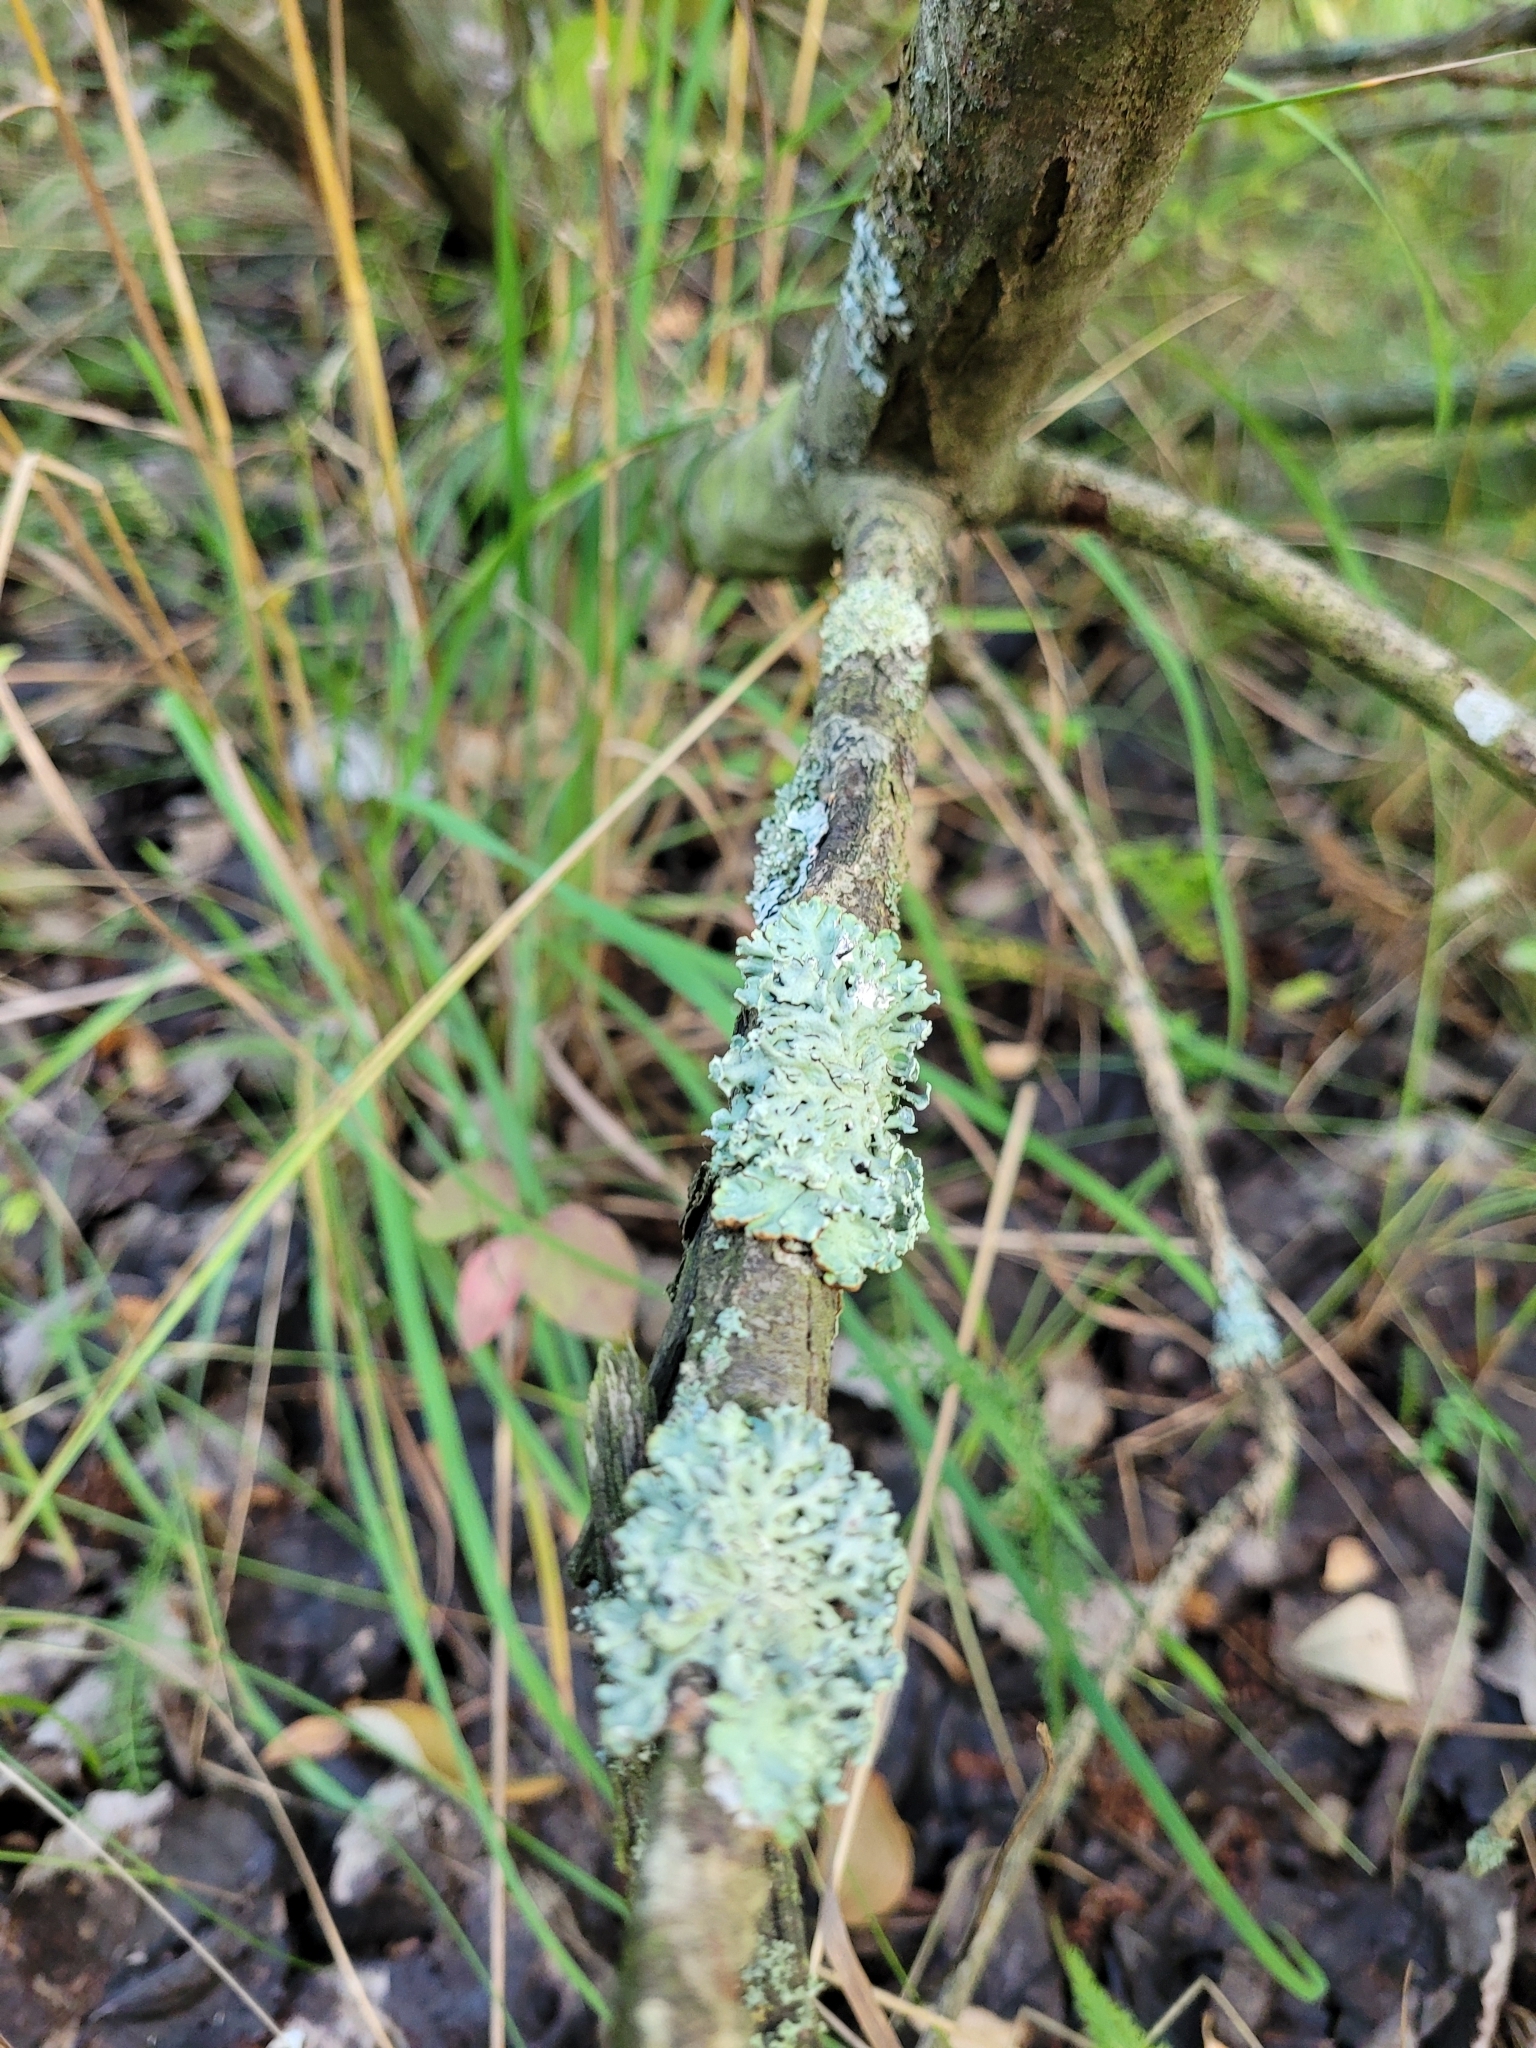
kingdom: Fungi
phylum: Ascomycota
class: Lecanoromycetes
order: Lecanorales
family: Parmeliaceae
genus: Hypogymnia
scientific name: Hypogymnia physodes
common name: Dark crottle
